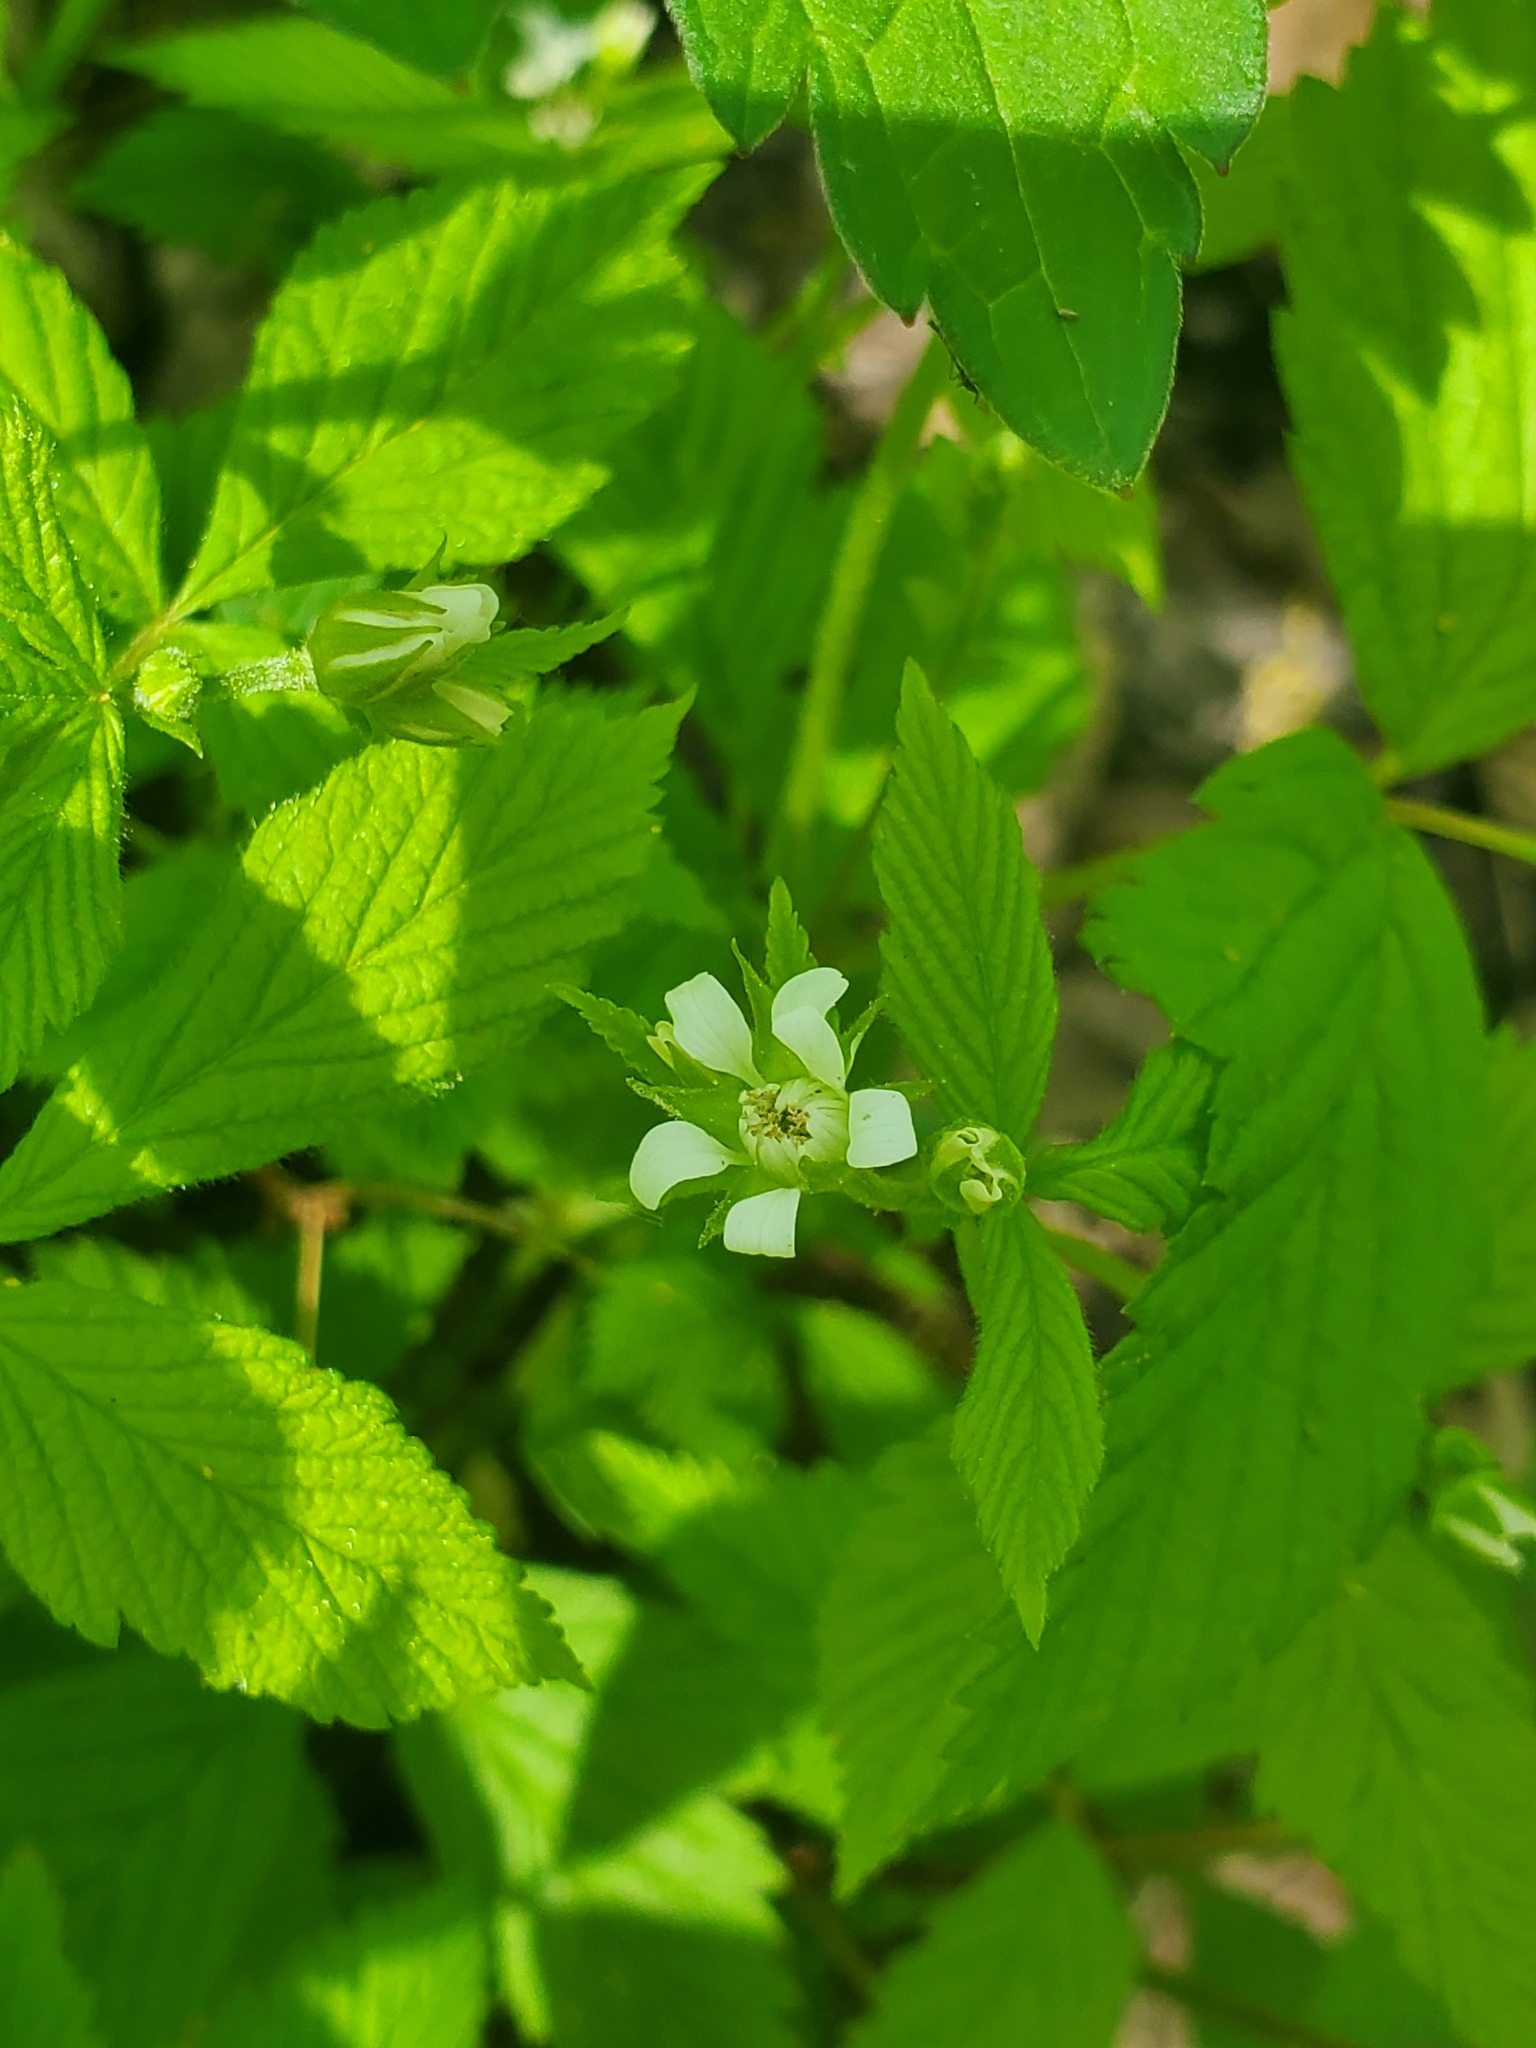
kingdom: Plantae
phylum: Tracheophyta
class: Magnoliopsida
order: Rosales
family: Rosaceae
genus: Rubus
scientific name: Rubus pubescens
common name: Dwarf raspberry
